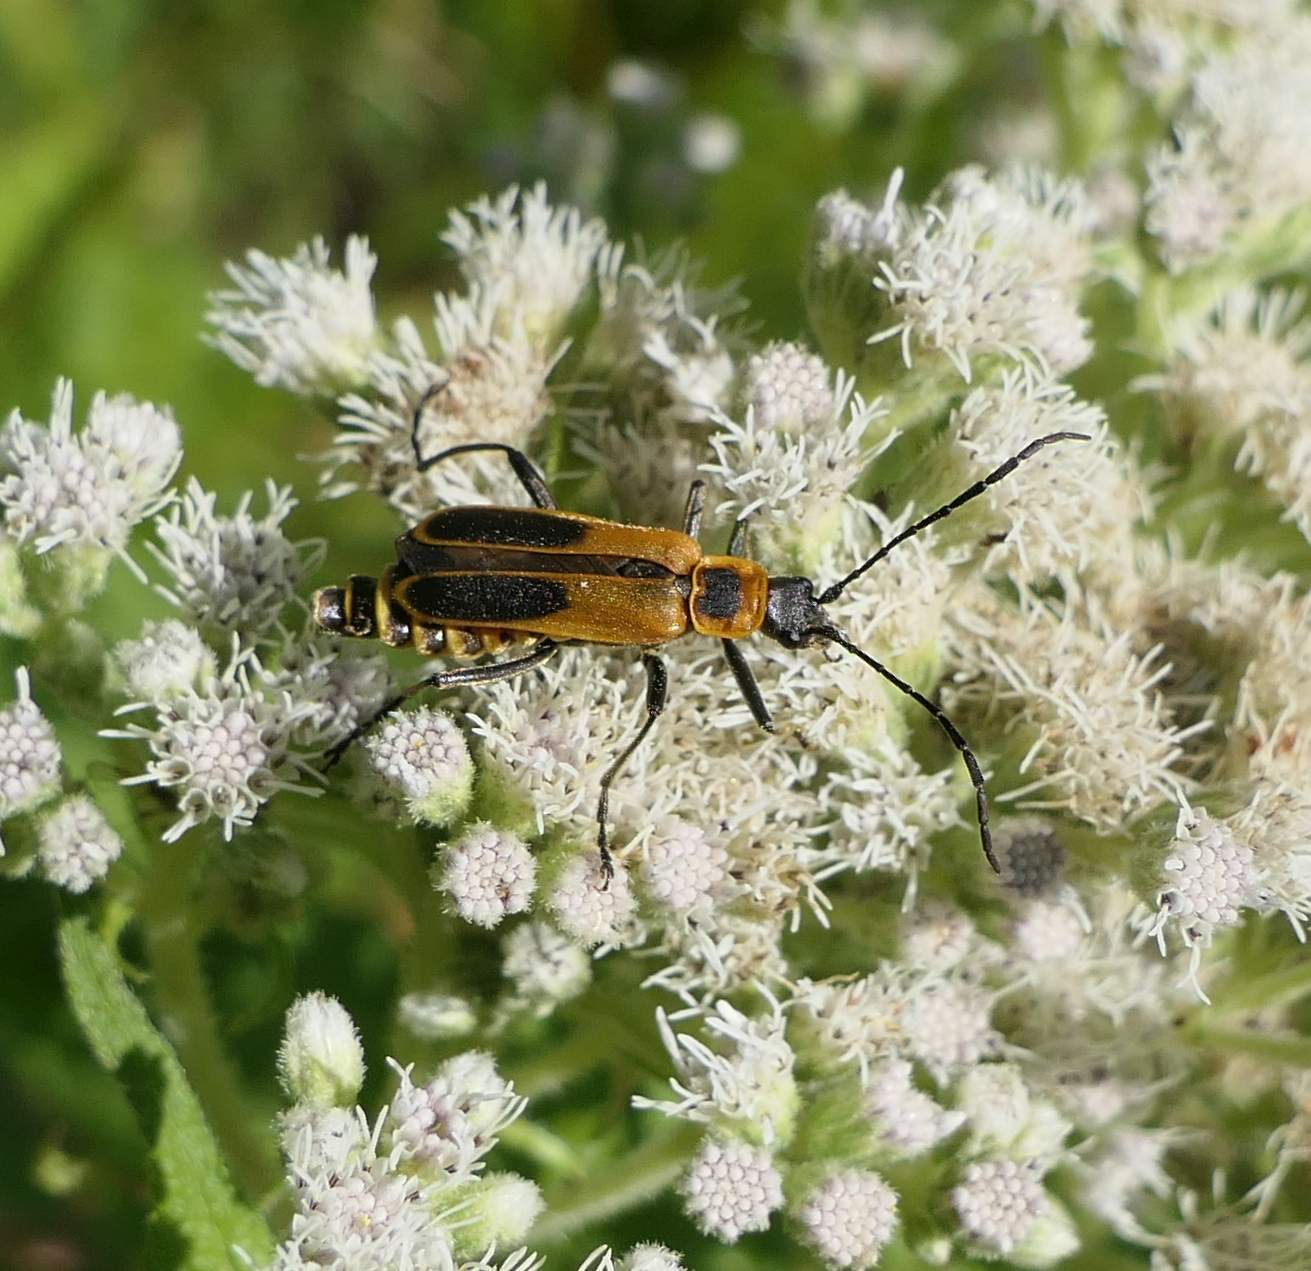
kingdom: Animalia
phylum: Arthropoda
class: Insecta
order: Coleoptera
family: Cantharidae
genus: Chauliognathus
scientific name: Chauliognathus pensylvanicus
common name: Goldenrod soldier beetle
